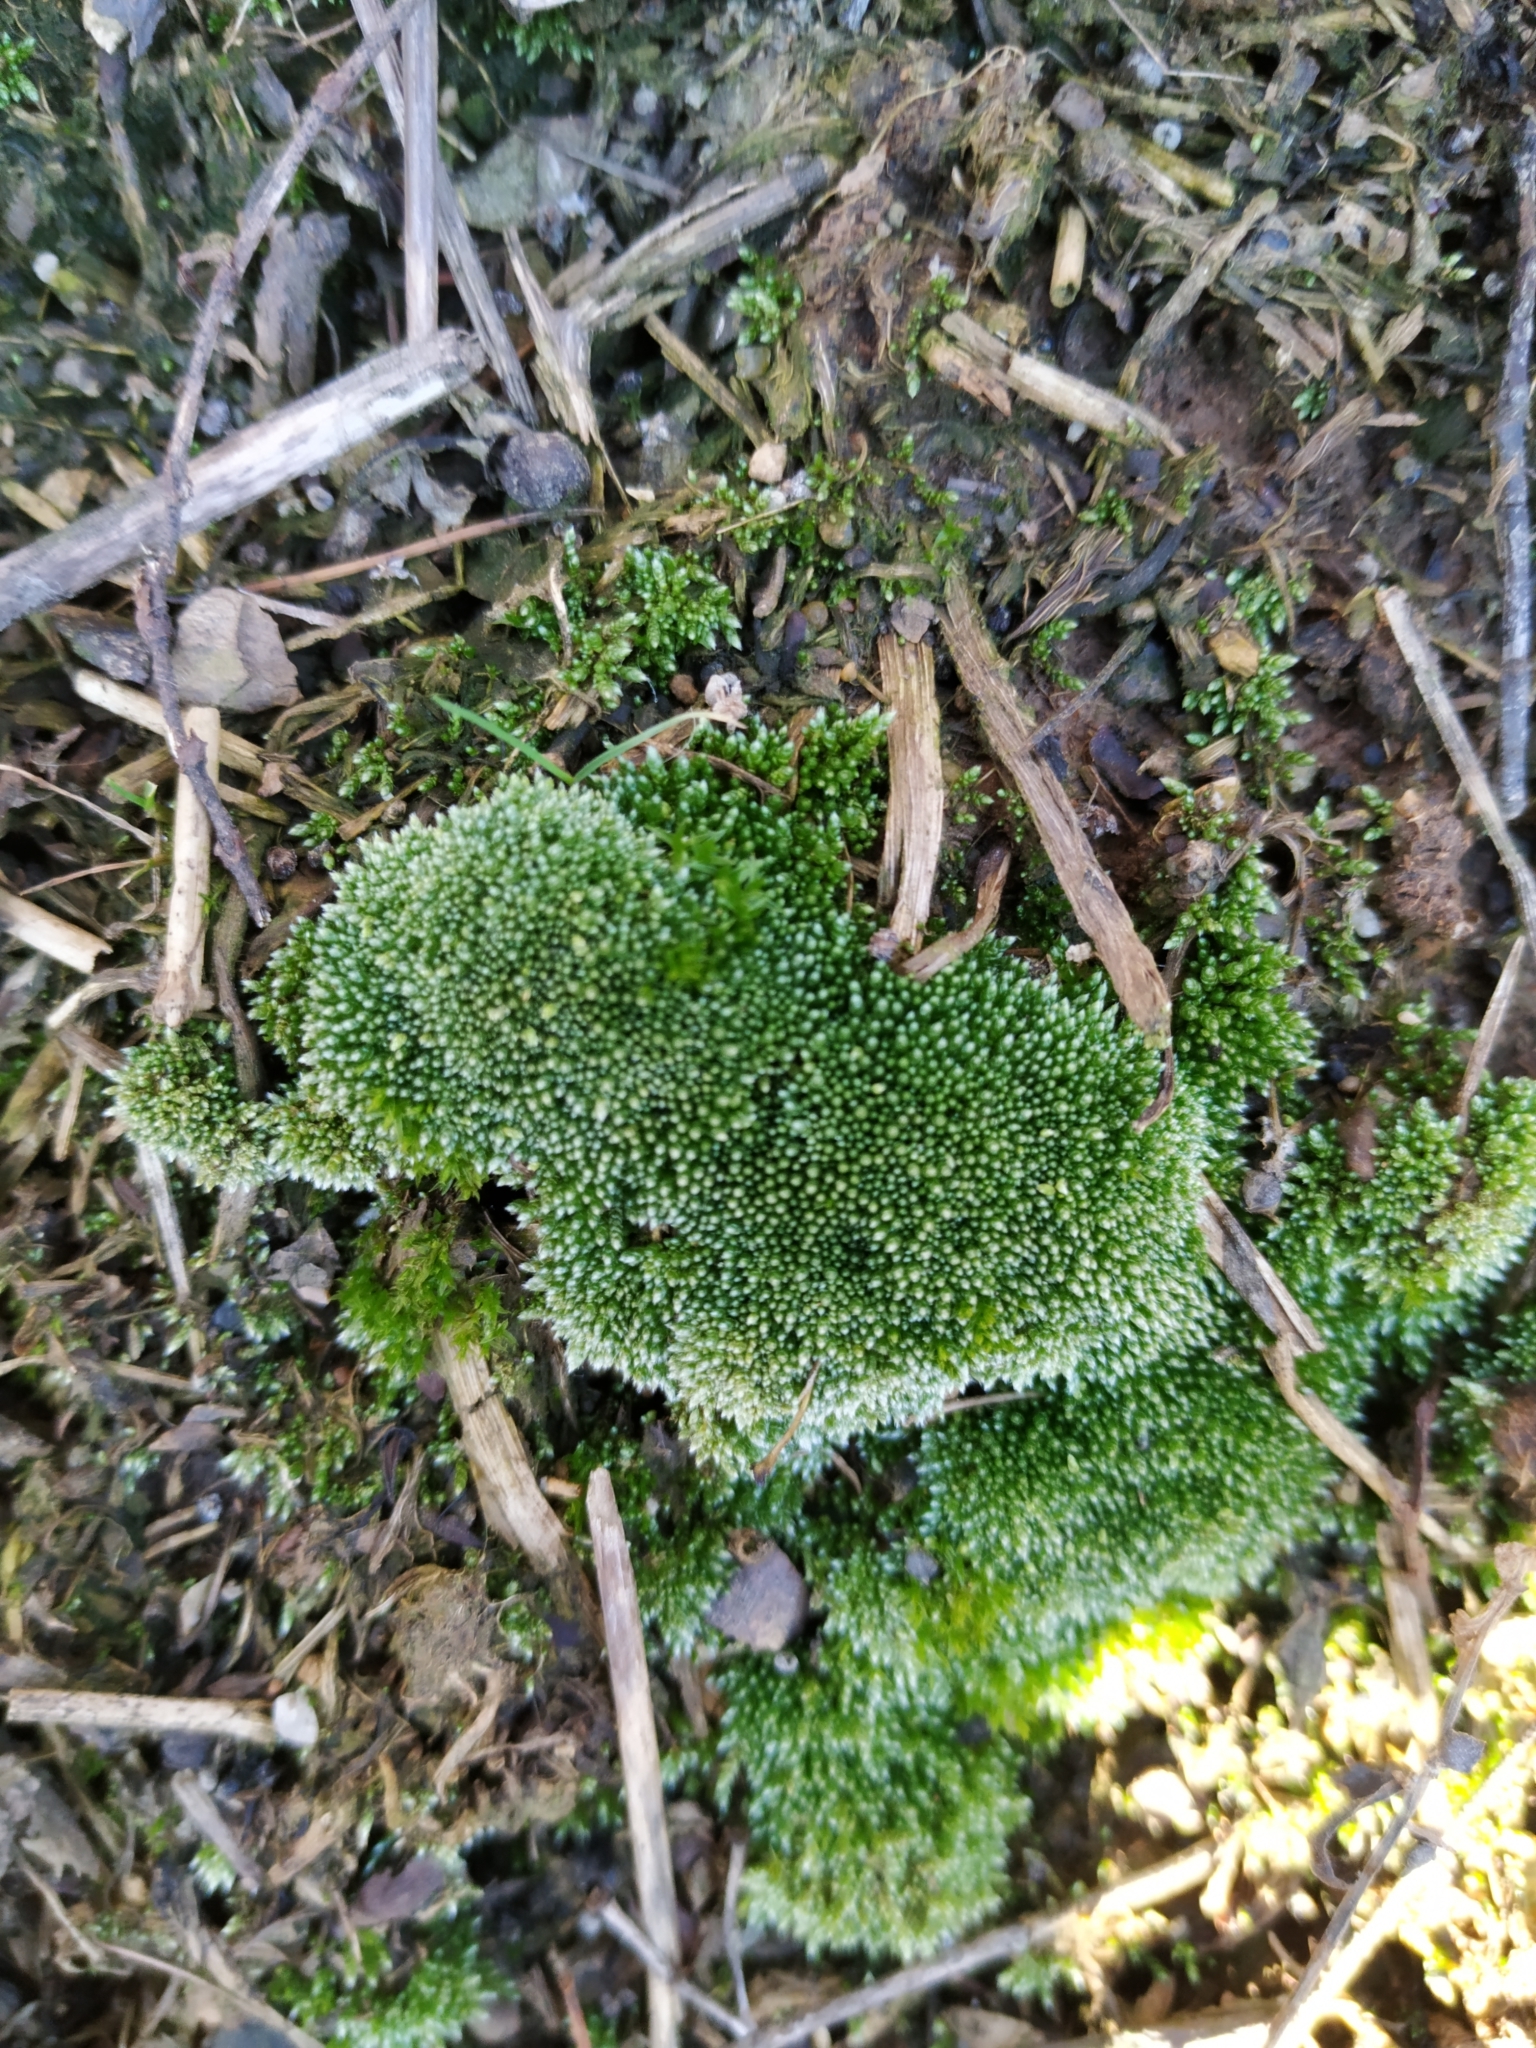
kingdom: Plantae
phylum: Bryophyta
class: Bryopsida
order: Bryales
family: Bryaceae
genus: Bryum
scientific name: Bryum argenteum
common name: Silver-moss
